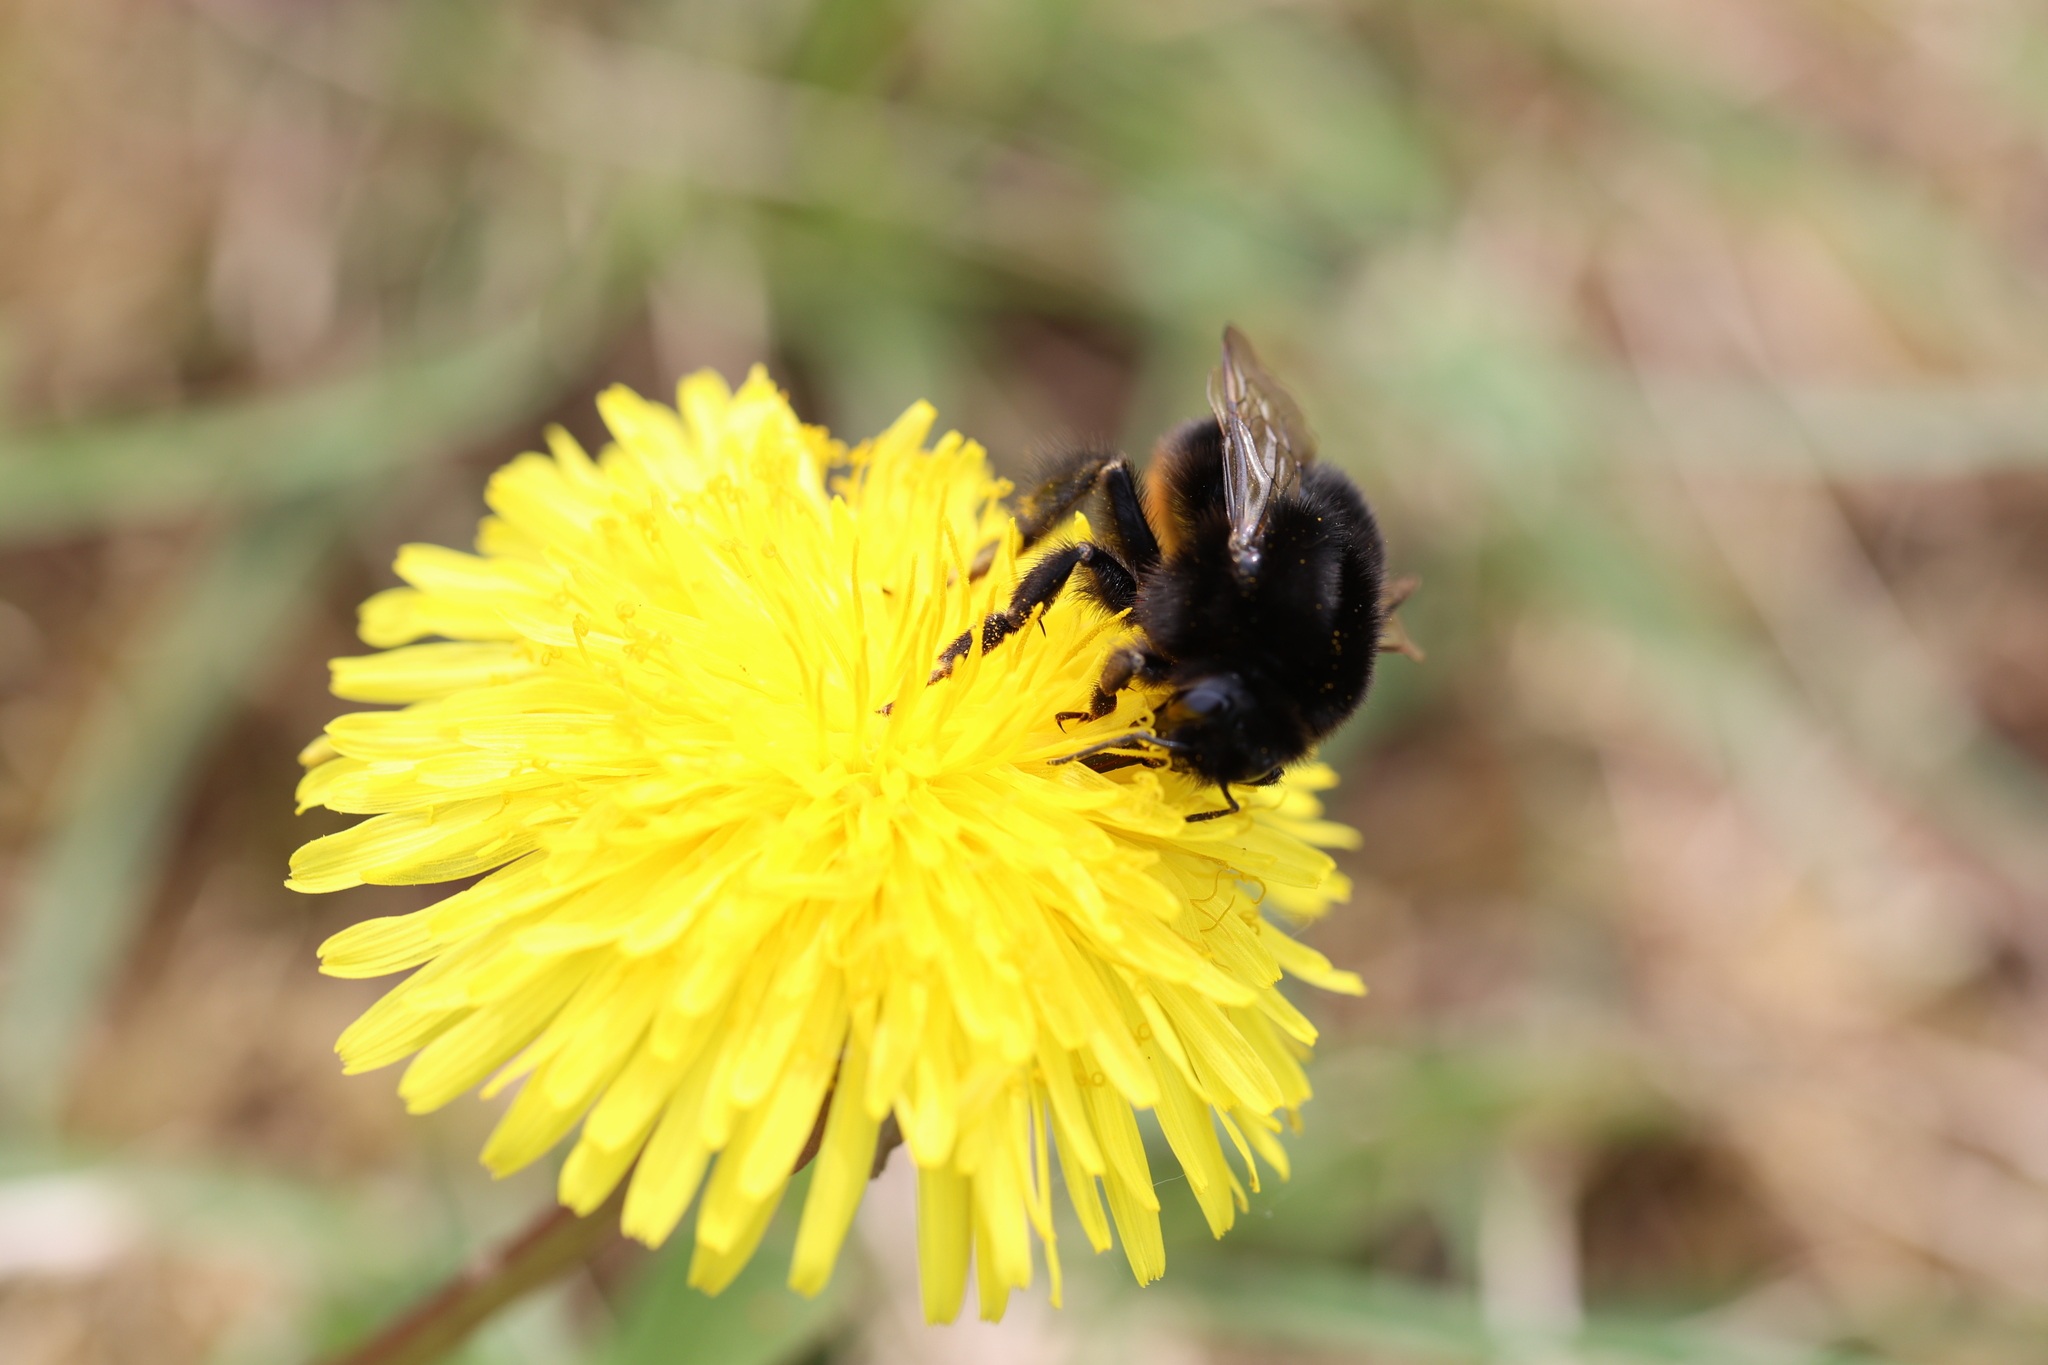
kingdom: Animalia
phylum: Arthropoda
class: Insecta
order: Hymenoptera
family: Apidae
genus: Bombus
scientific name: Bombus lapidarius
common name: Large red-tailed humble-bee
